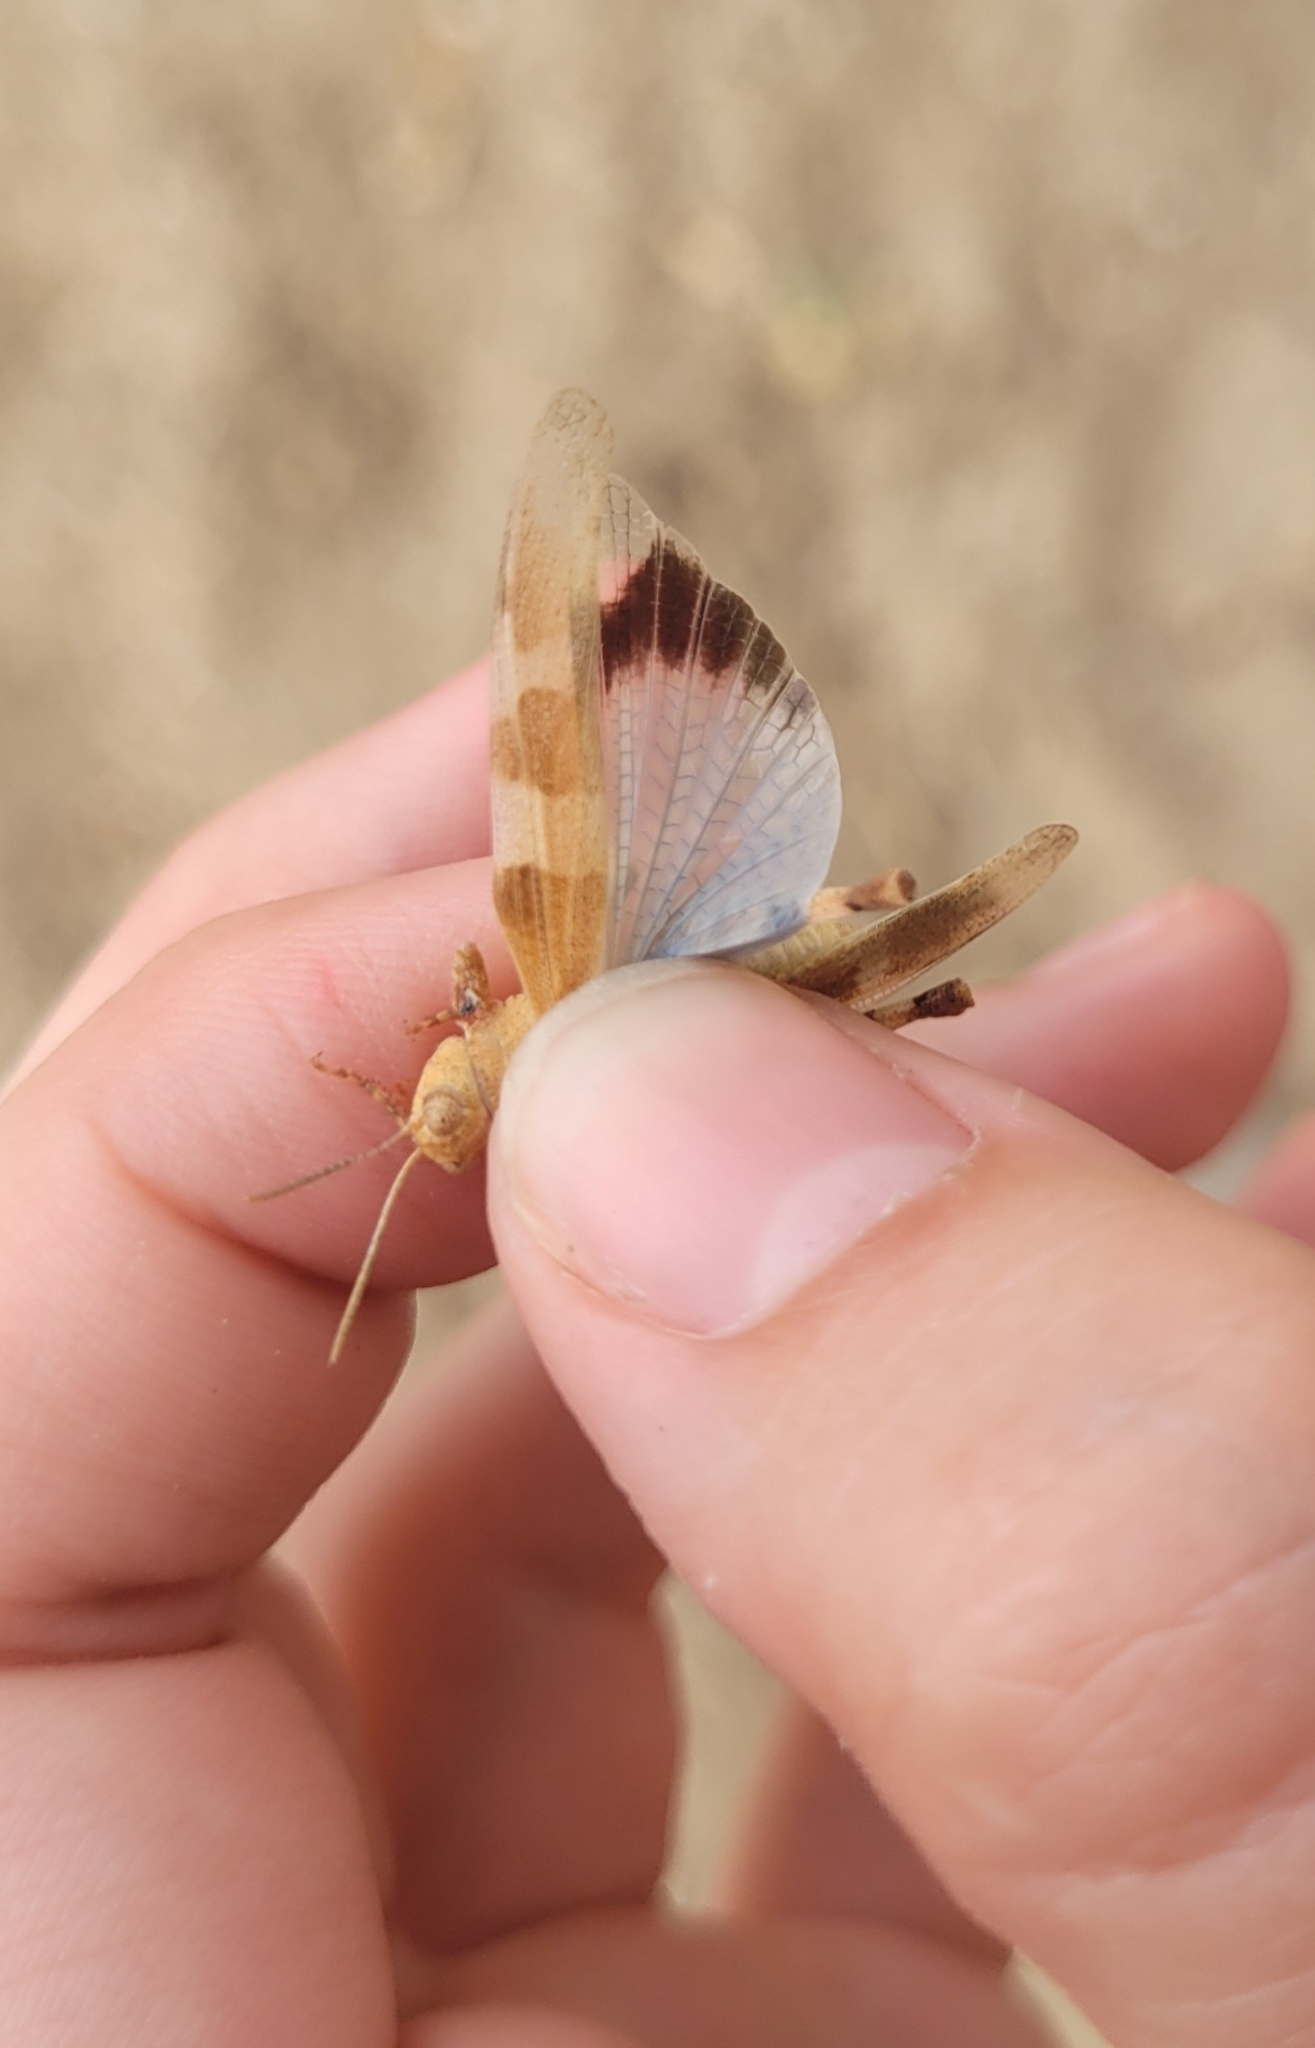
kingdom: Animalia
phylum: Arthropoda
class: Insecta
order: Orthoptera
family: Acrididae
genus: Oedipoda
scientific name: Oedipoda caerulescens
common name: Blue-winged grasshopper
